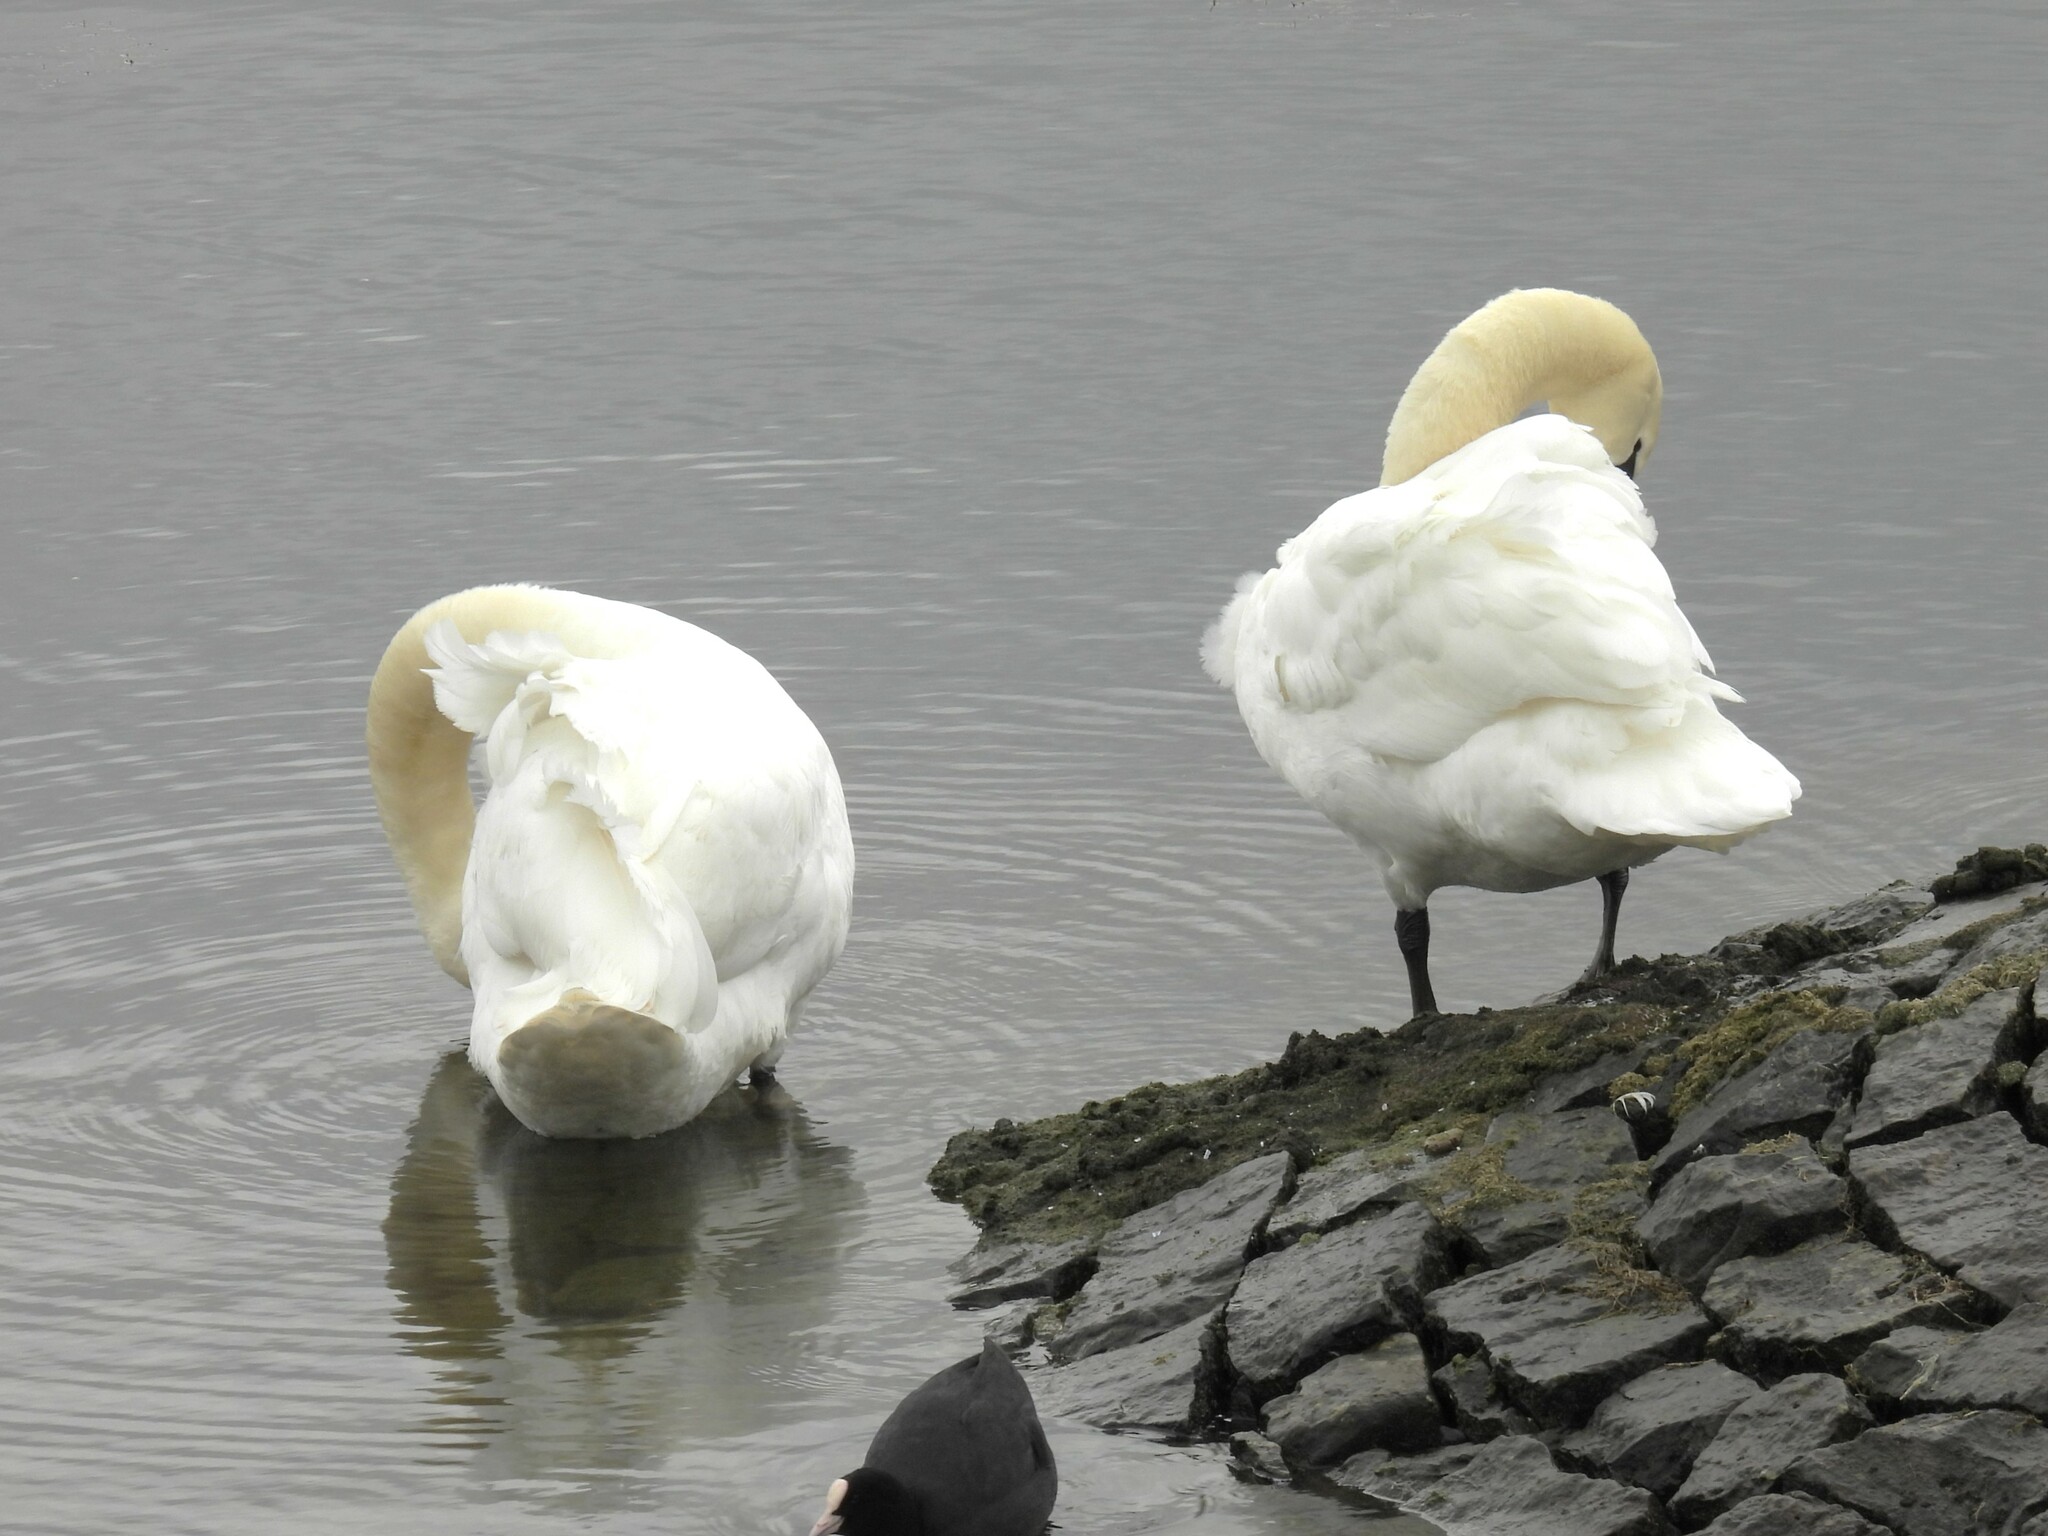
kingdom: Animalia
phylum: Chordata
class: Aves
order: Anseriformes
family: Anatidae
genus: Cygnus
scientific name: Cygnus olor
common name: Mute swan
